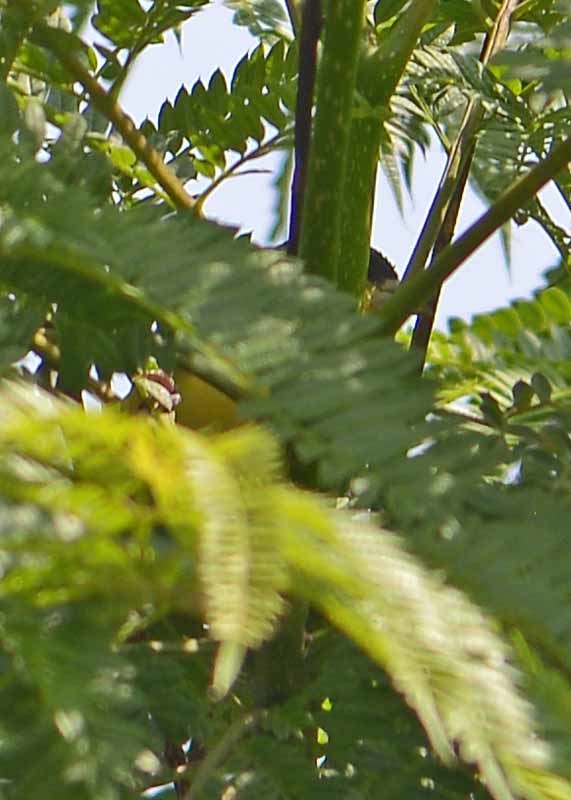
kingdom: Animalia
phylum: Chordata
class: Aves
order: Passeriformes
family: Fringillidae
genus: Spinus
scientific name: Spinus psaltria
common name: Lesser goldfinch
